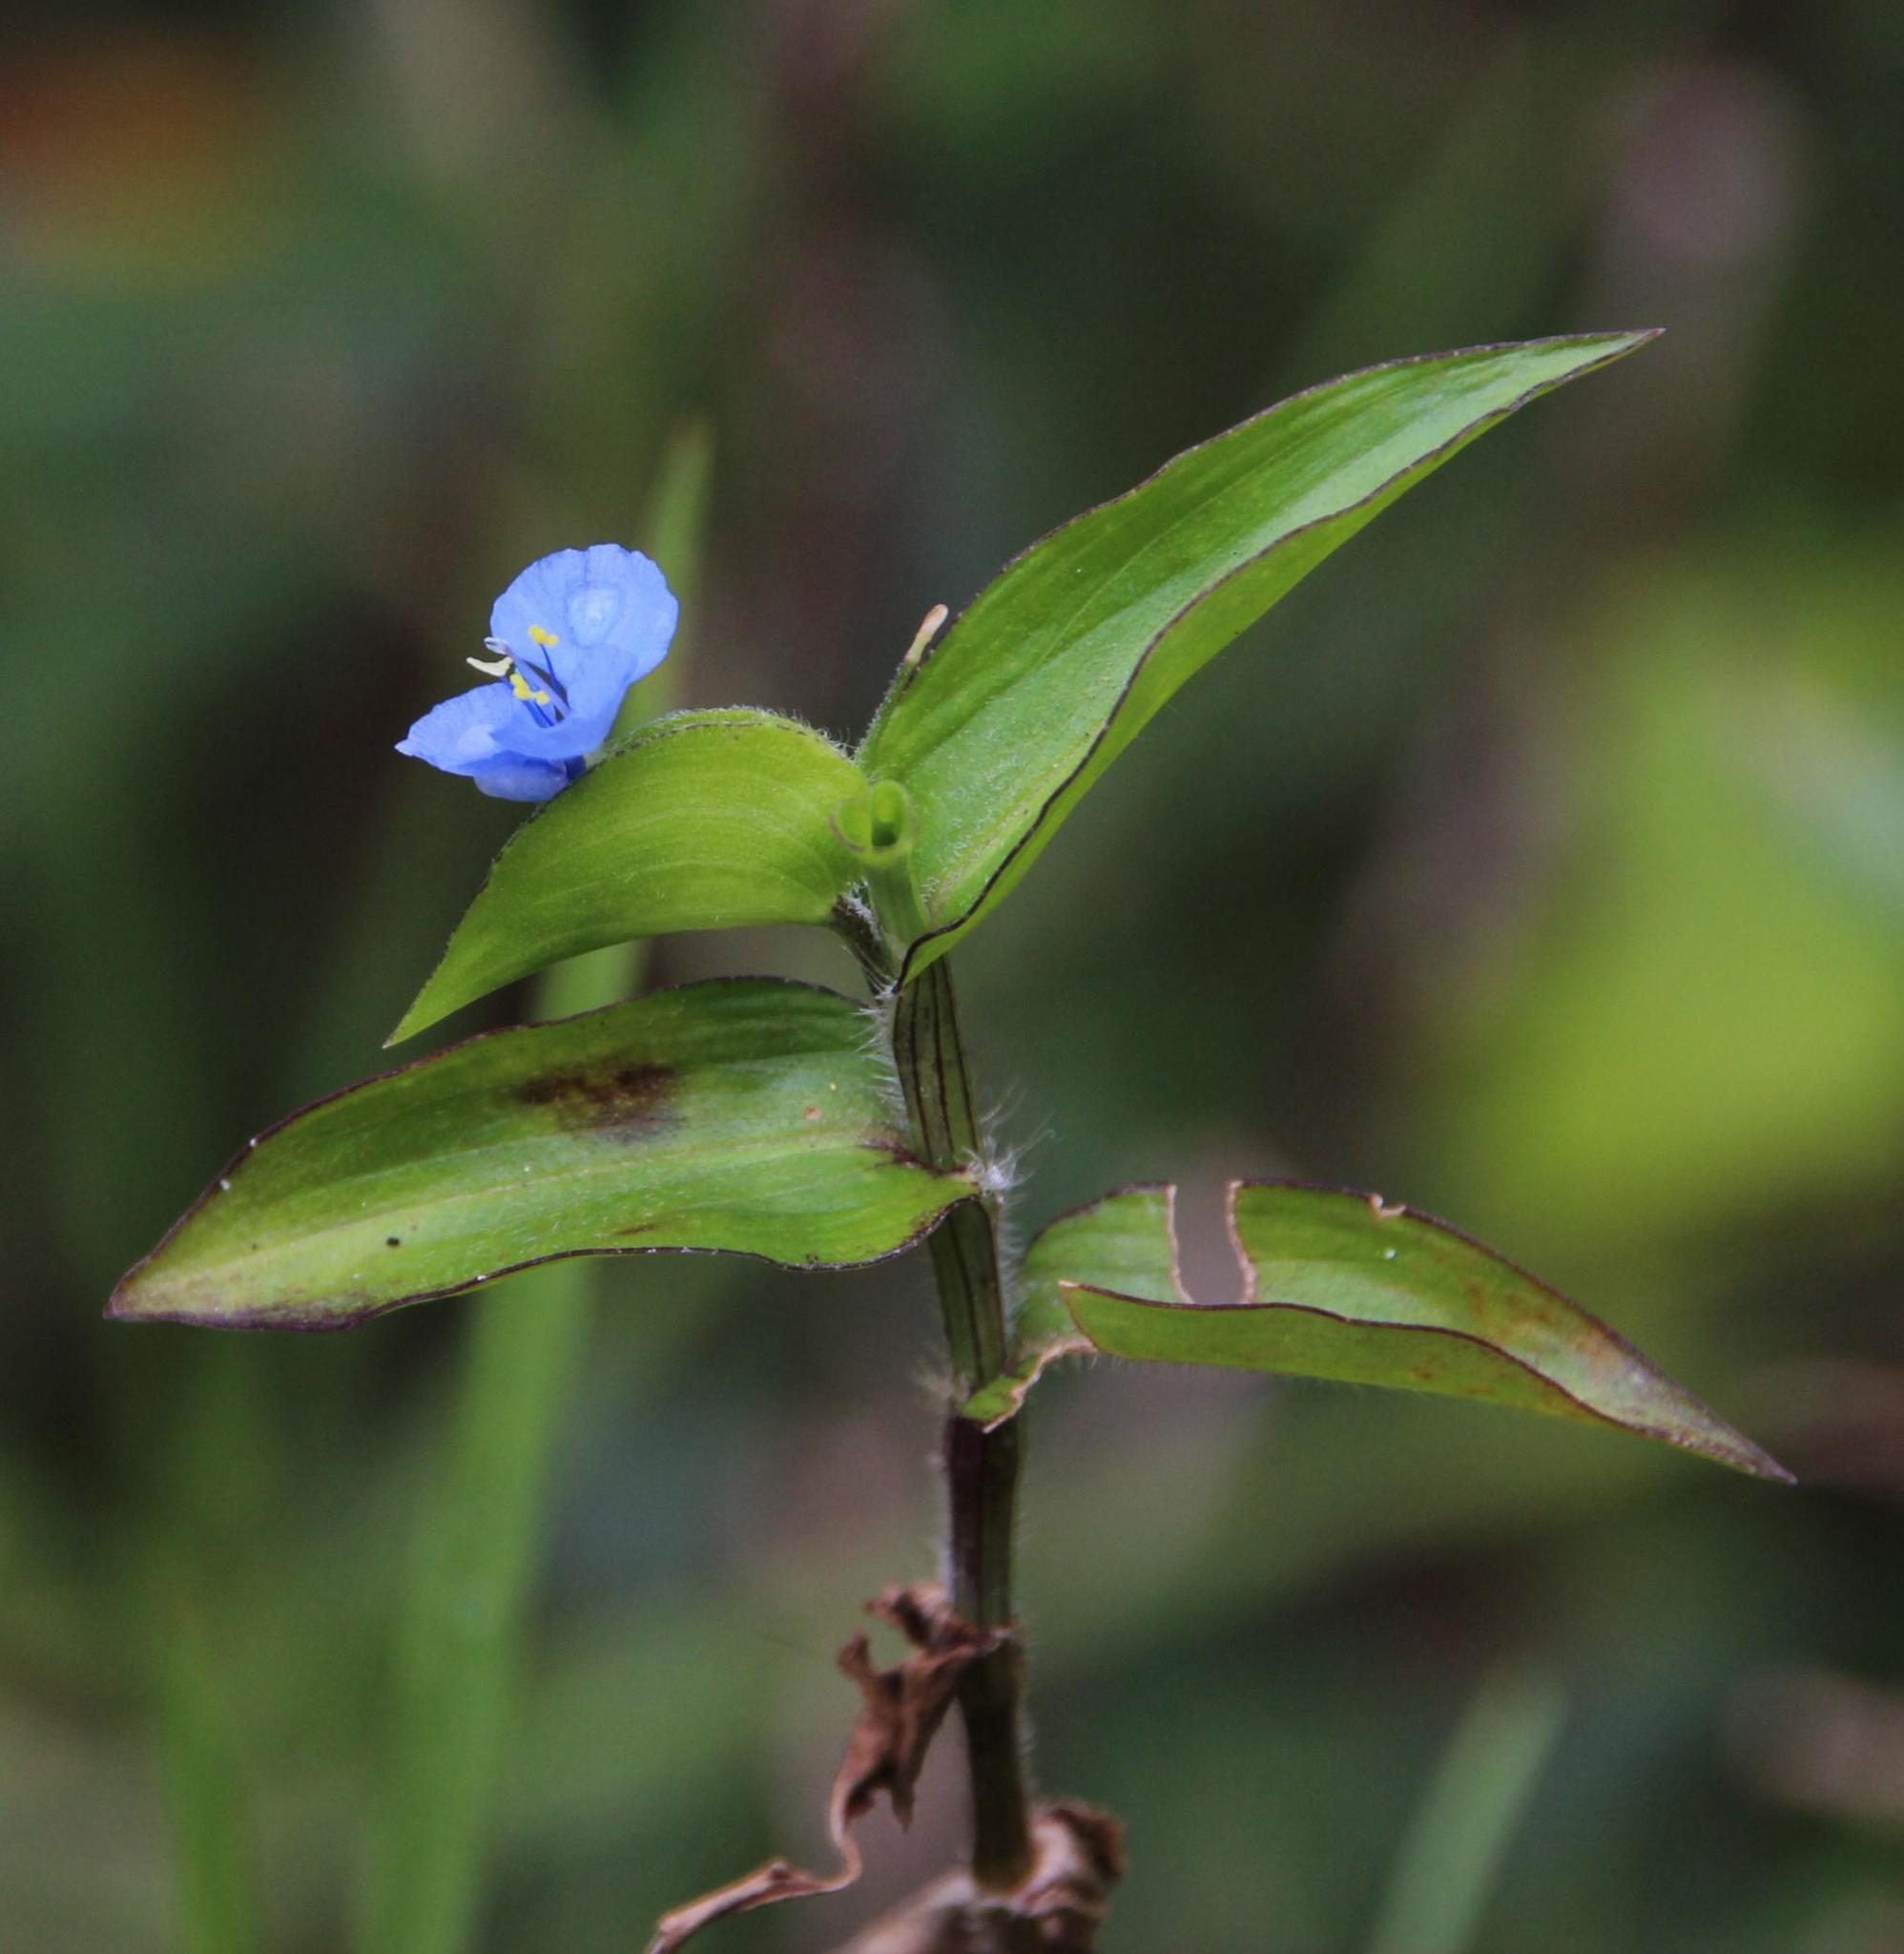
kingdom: Plantae
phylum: Tracheophyta
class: Liliopsida
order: Commelinales
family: Commelinaceae
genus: Commelina
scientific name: Commelina diffusa
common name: Climbing dayflower
